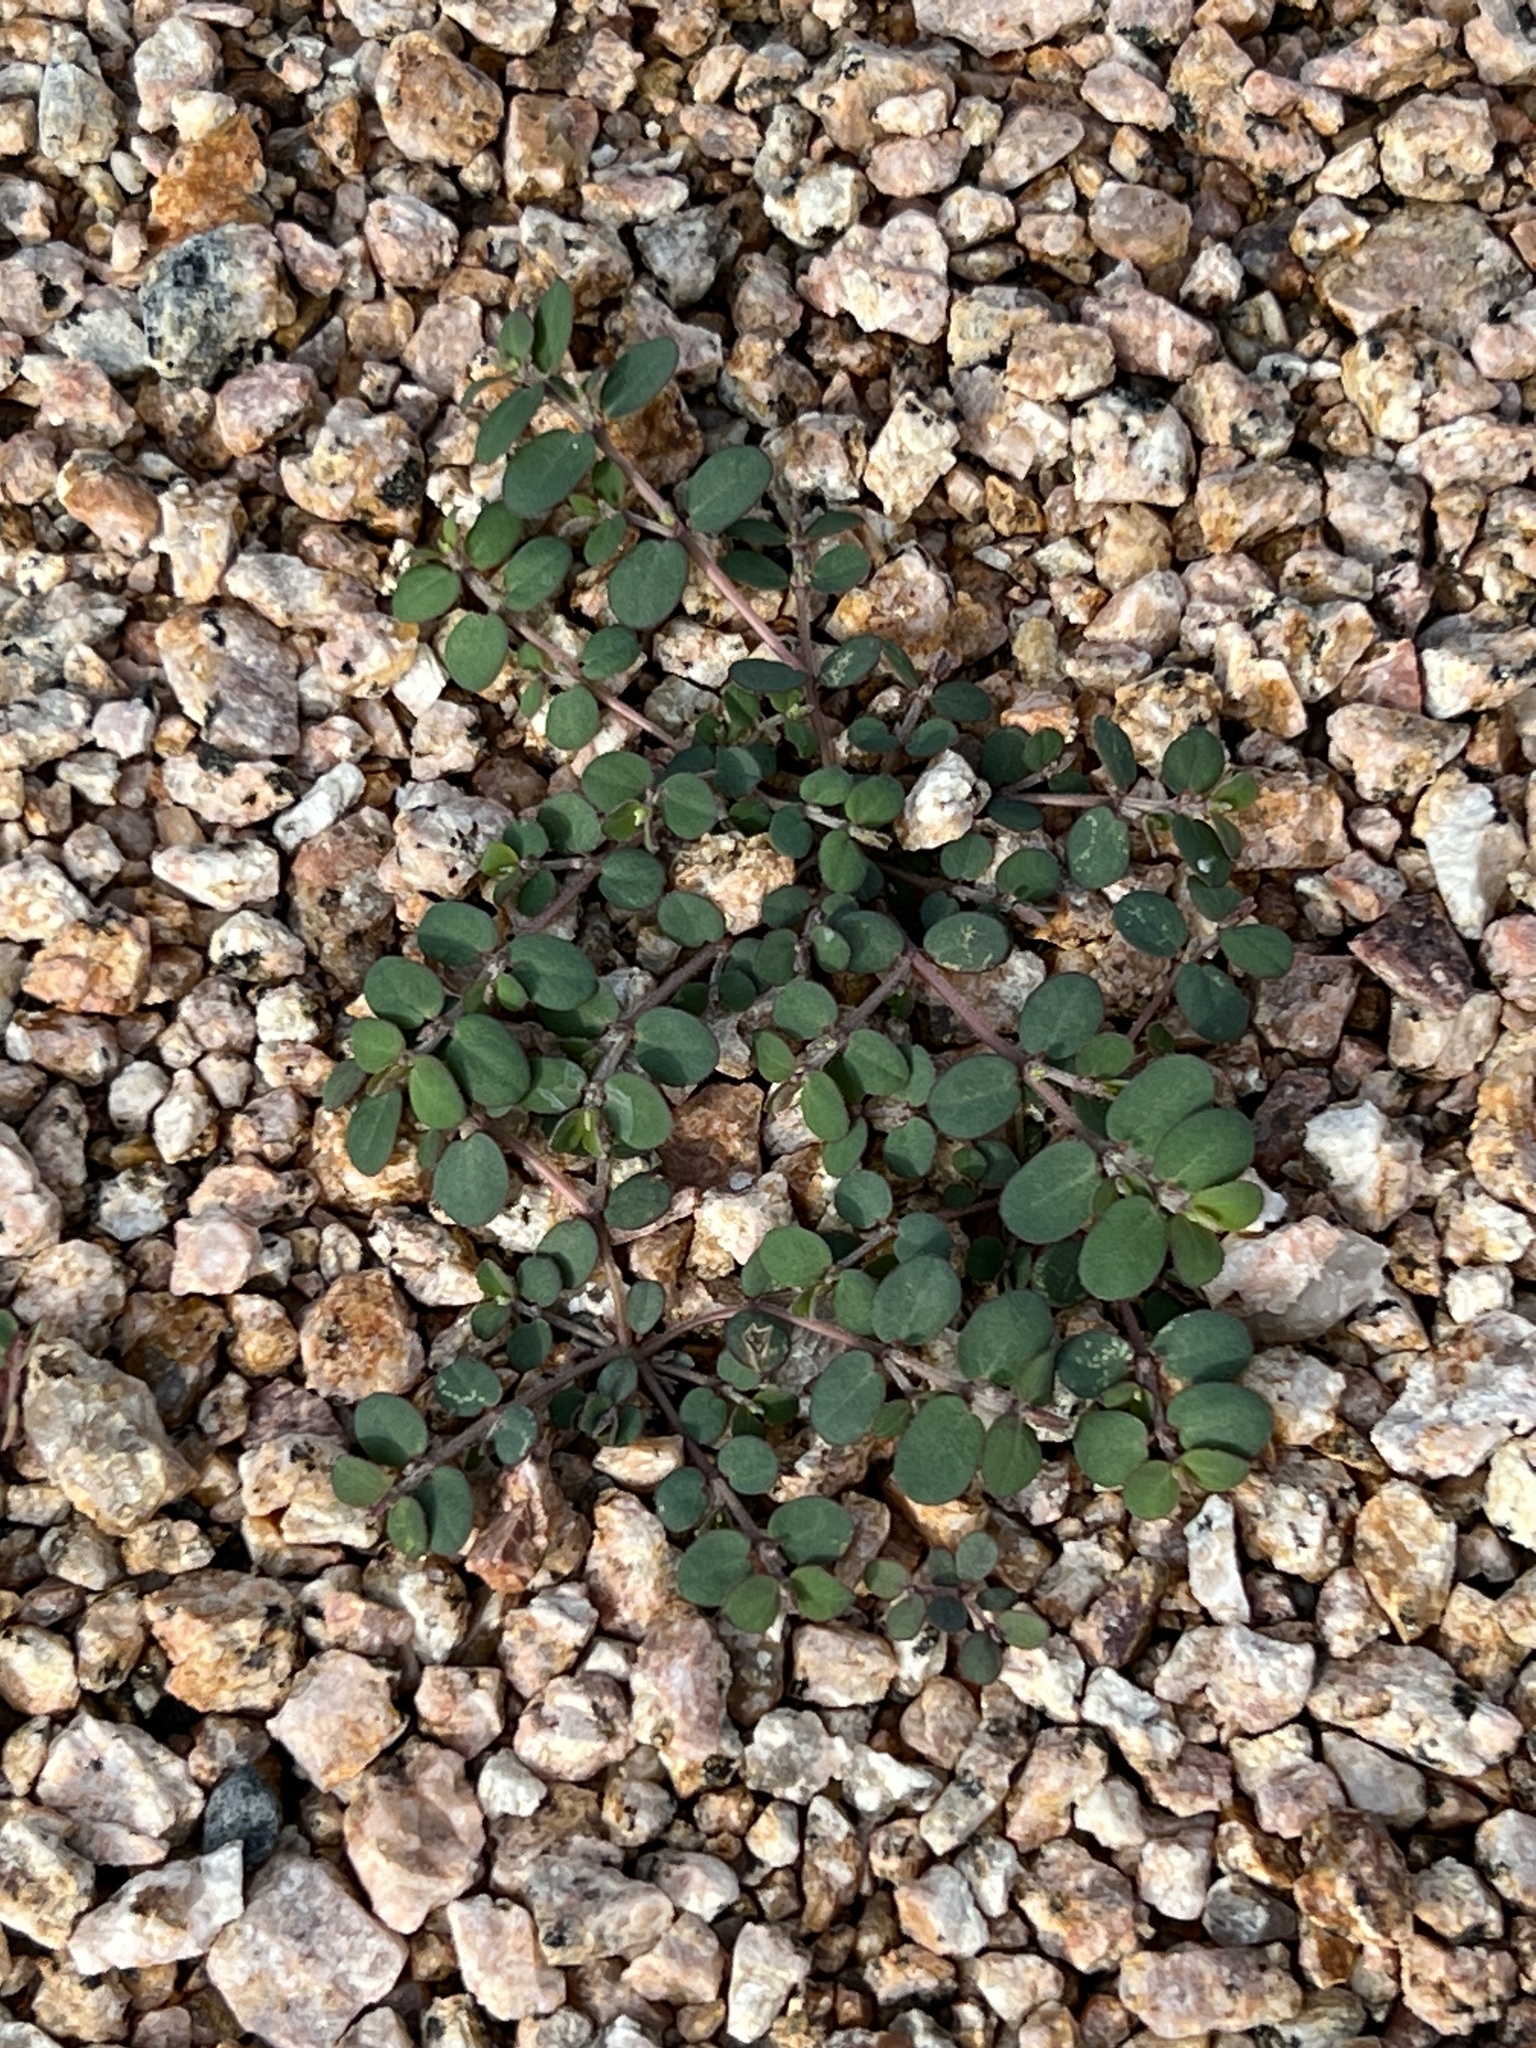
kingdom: Plantae
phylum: Tracheophyta
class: Magnoliopsida
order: Malpighiales
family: Euphorbiaceae
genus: Euphorbia
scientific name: Euphorbia prostrata
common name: Prostrate sandmat
